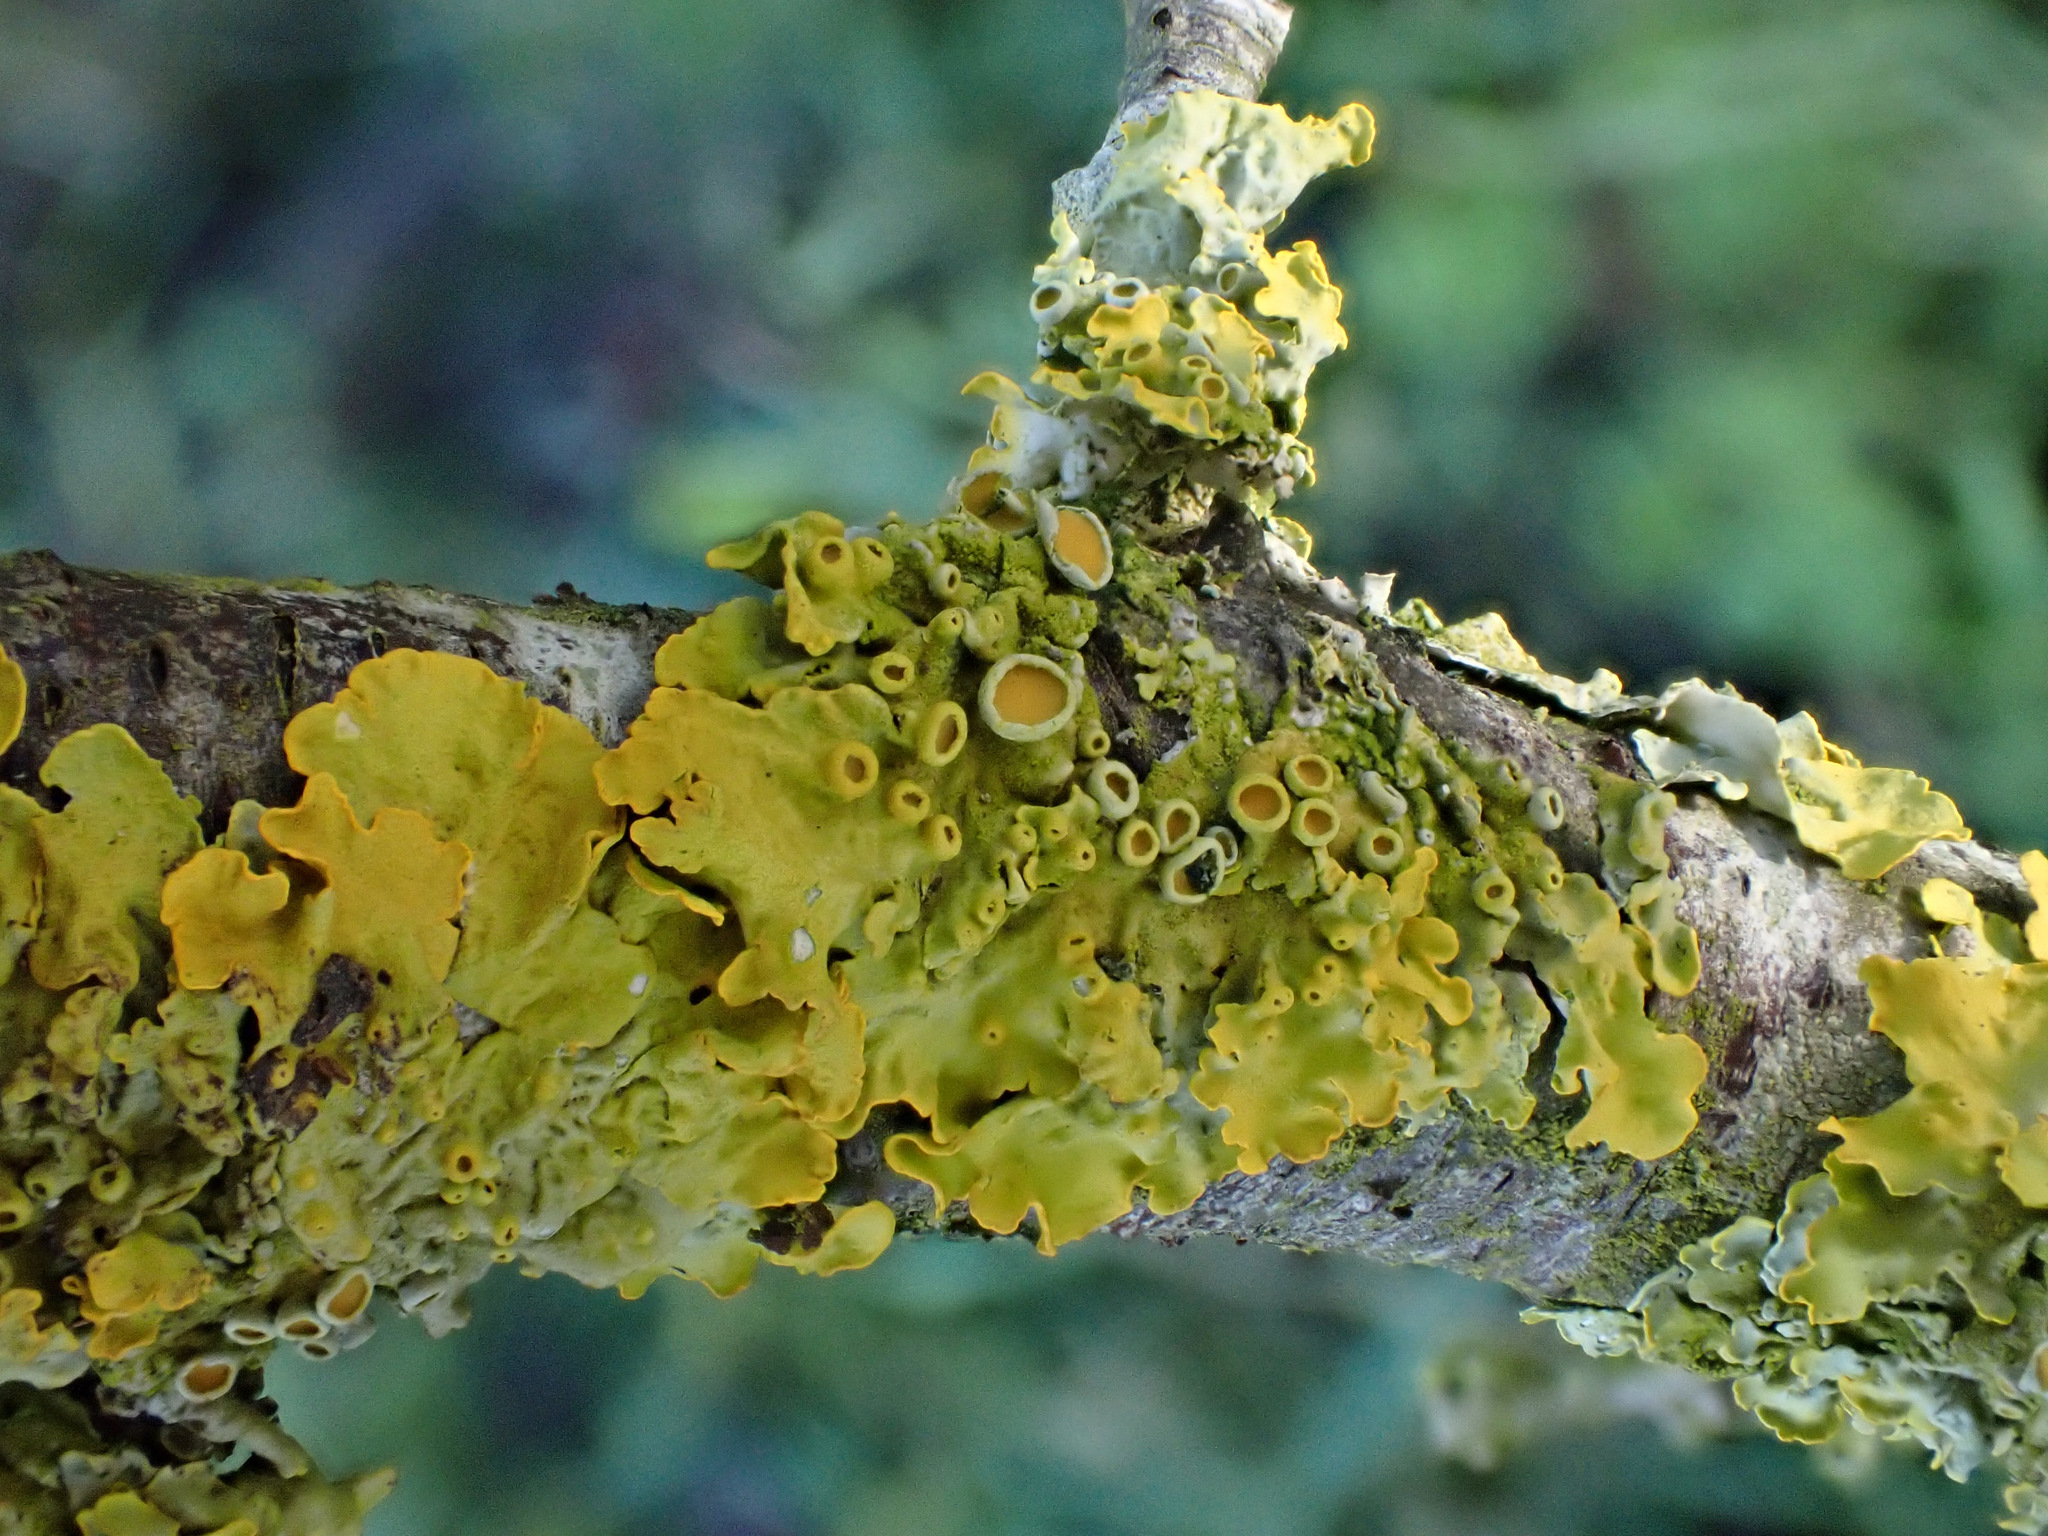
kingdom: Fungi
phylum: Ascomycota
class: Lecanoromycetes
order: Teloschistales
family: Teloschistaceae
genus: Xanthoria
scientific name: Xanthoria parietina
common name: Common orange lichen
